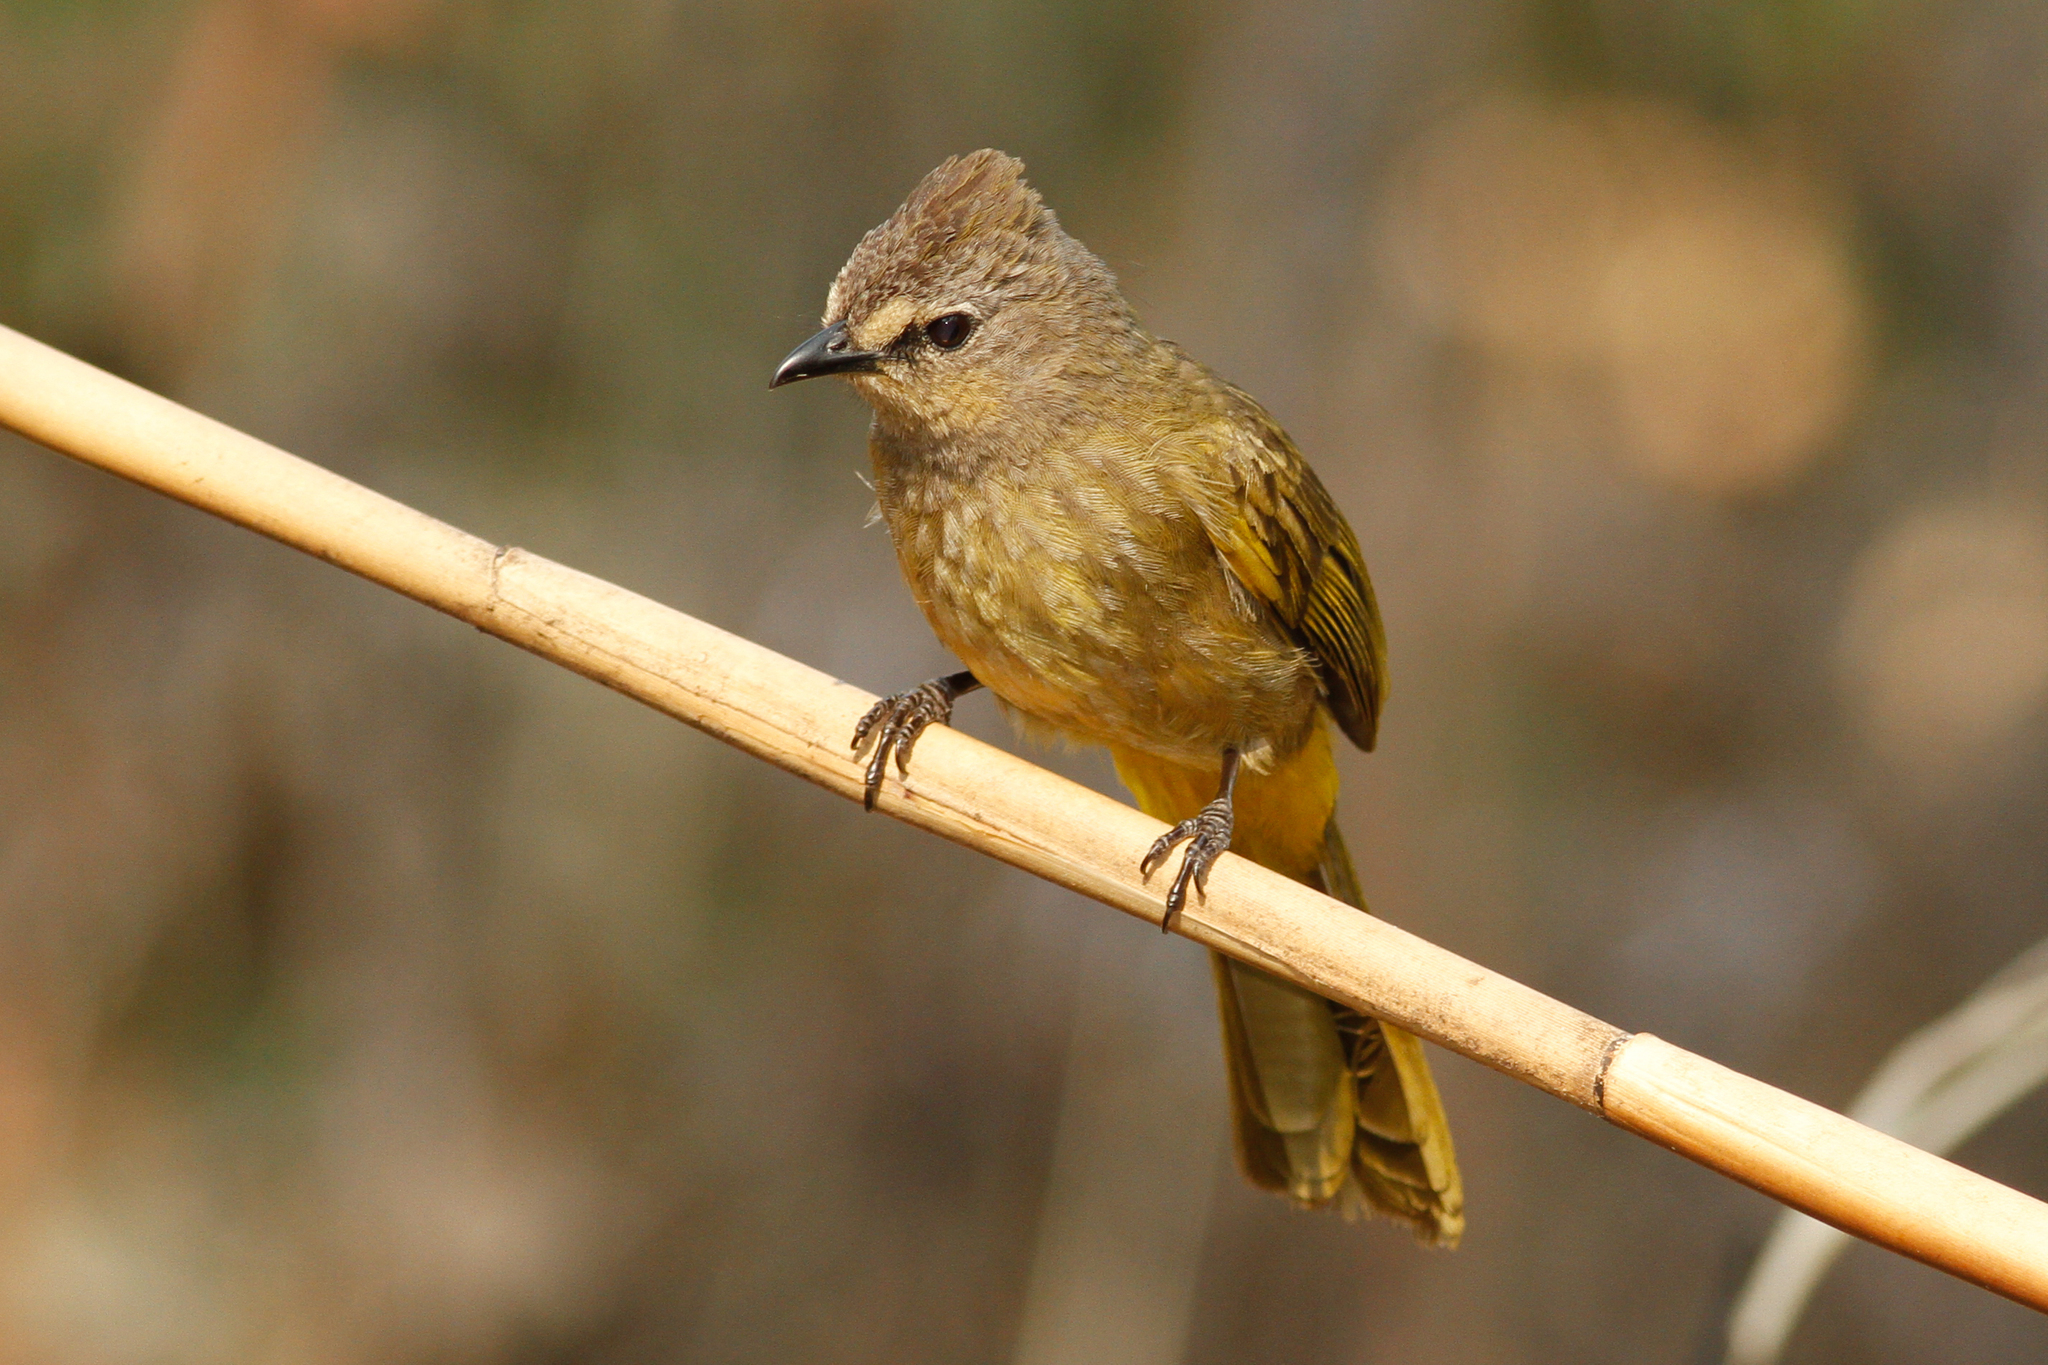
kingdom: Animalia
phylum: Chordata
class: Aves
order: Passeriformes
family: Pycnonotidae
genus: Pycnonotus
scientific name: Pycnonotus flavescens
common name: Flavescent bulbul
